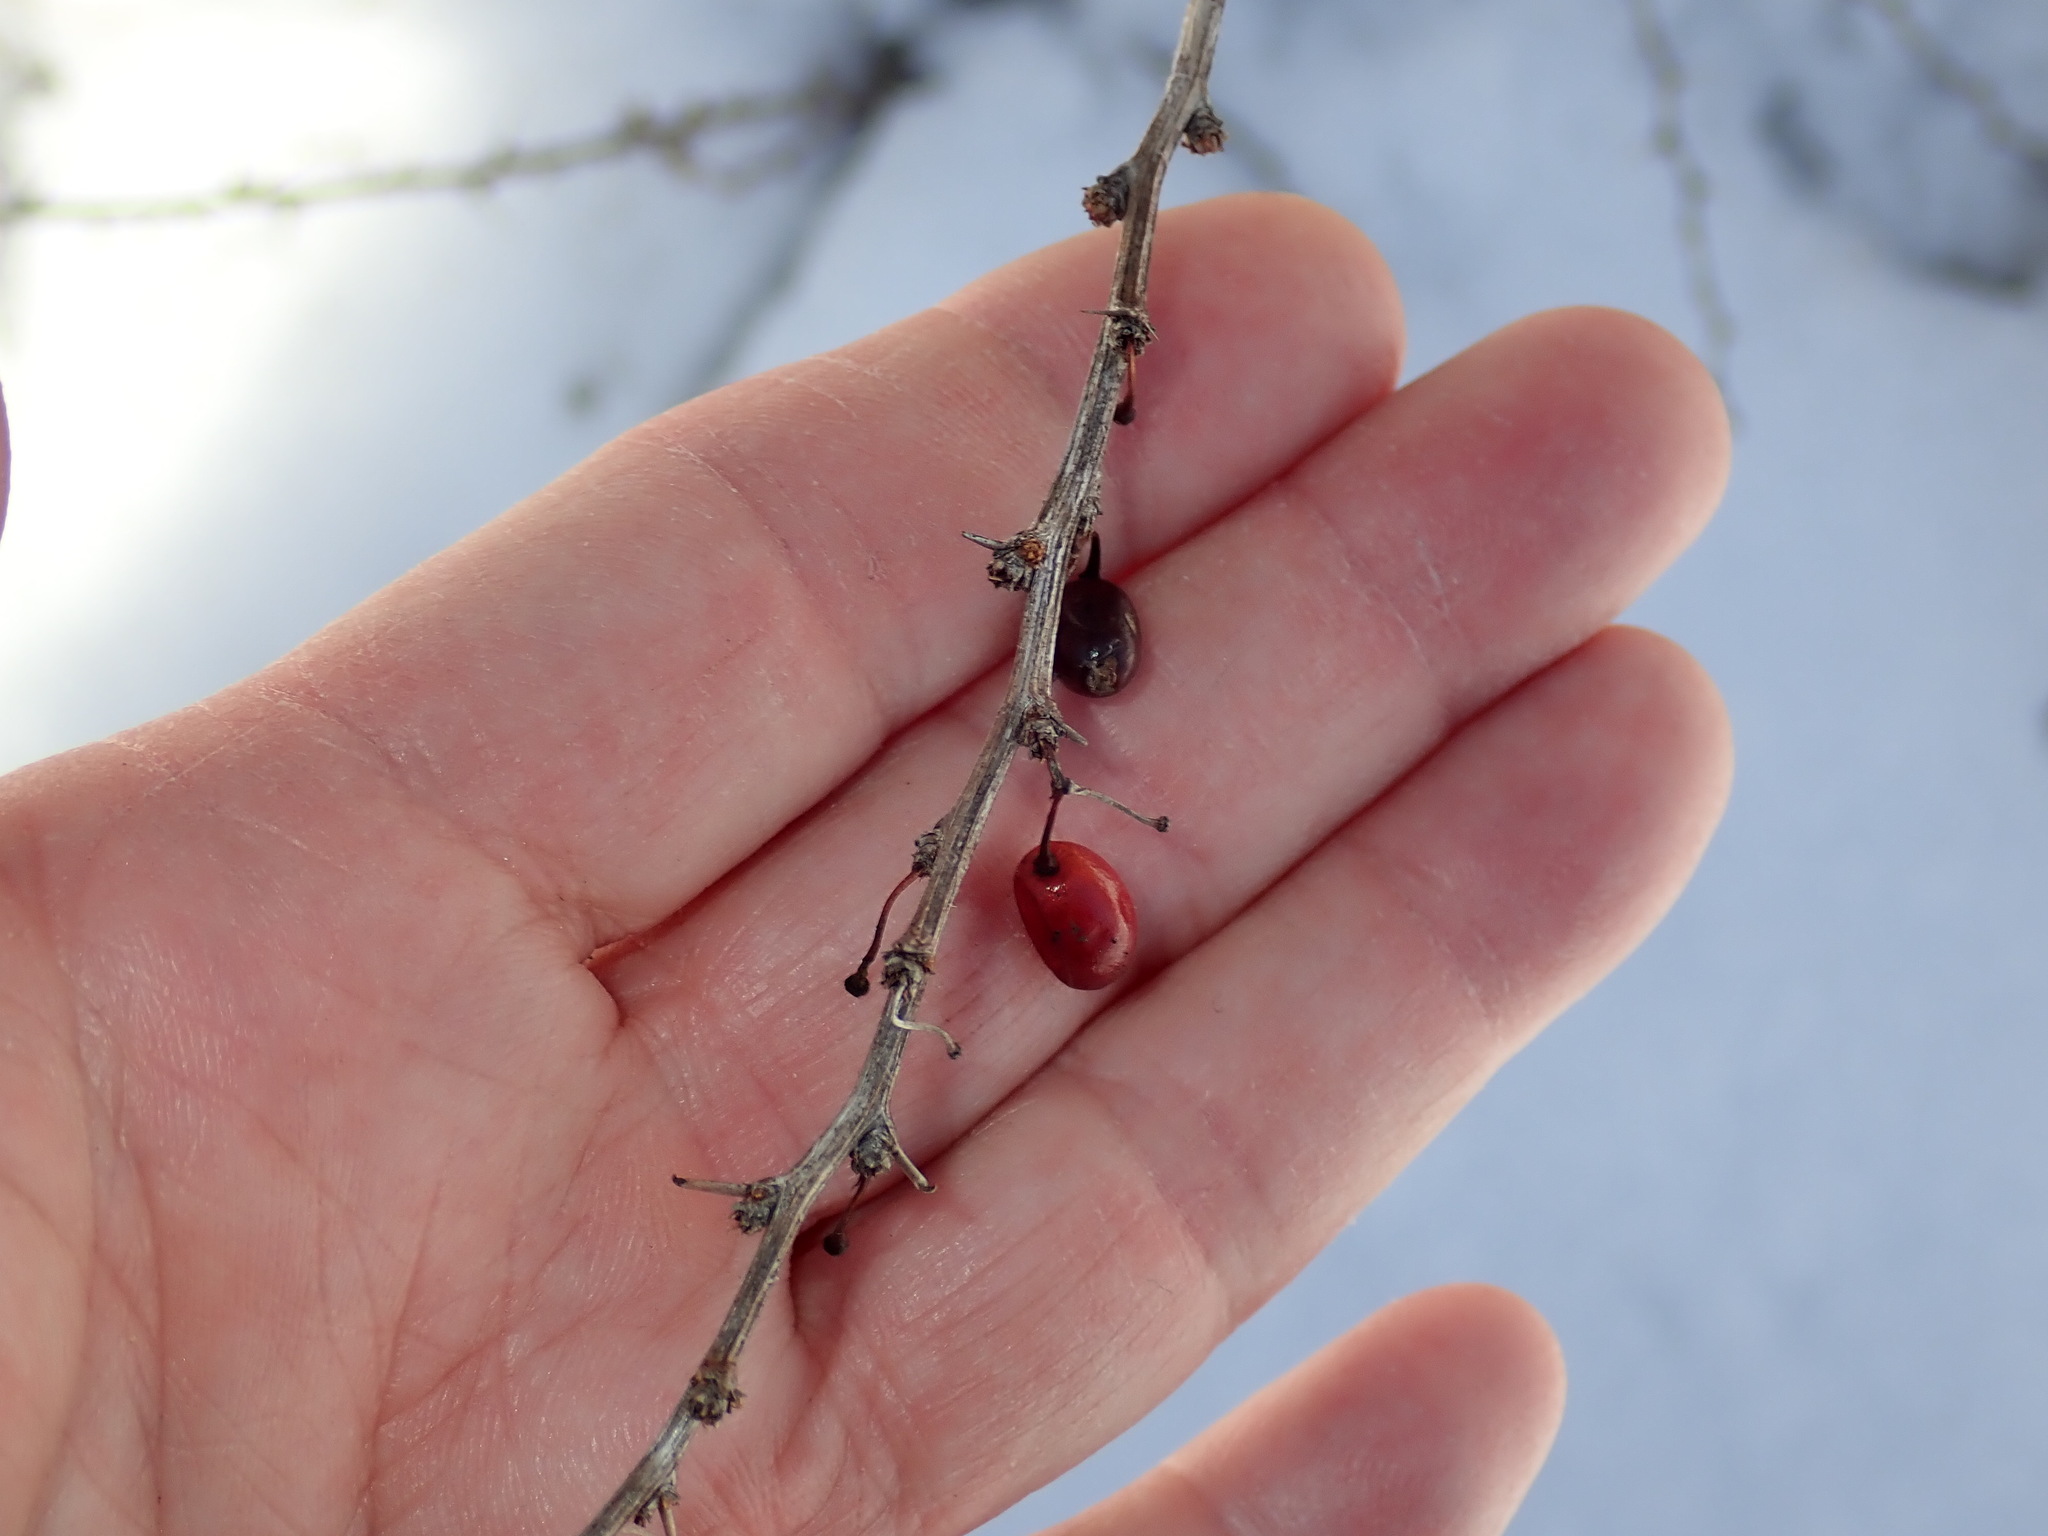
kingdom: Plantae
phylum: Tracheophyta
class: Magnoliopsida
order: Ranunculales
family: Berberidaceae
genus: Berberis
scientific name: Berberis thunbergii
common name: Japanese barberry
